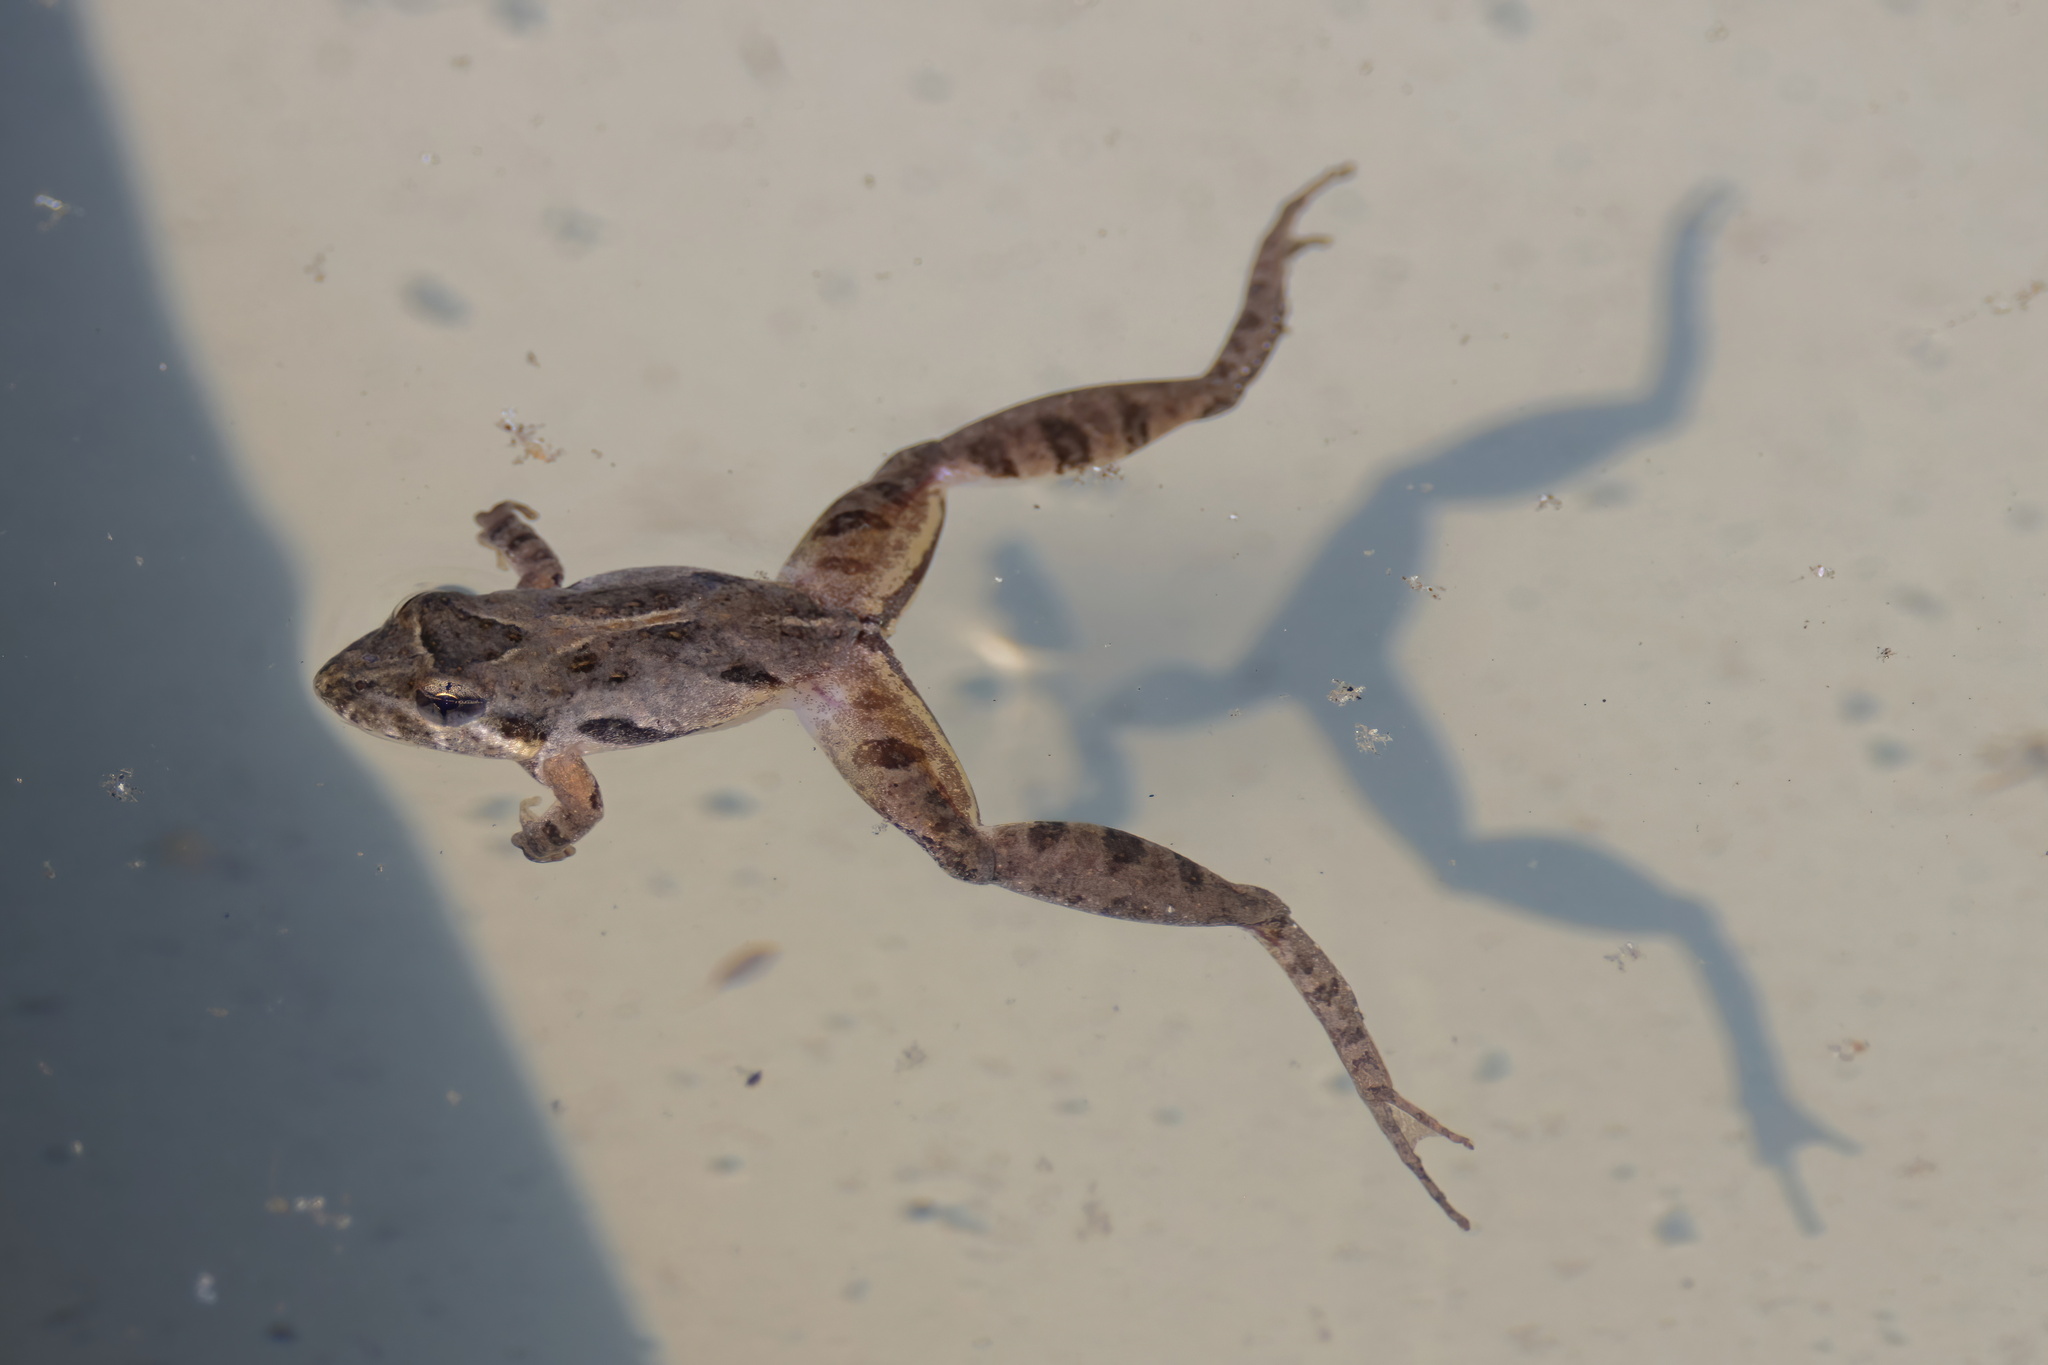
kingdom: Animalia
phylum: Chordata
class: Amphibia
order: Anura
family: Hylidae
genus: Acris
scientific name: Acris gryllus
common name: Southern cricket frog
